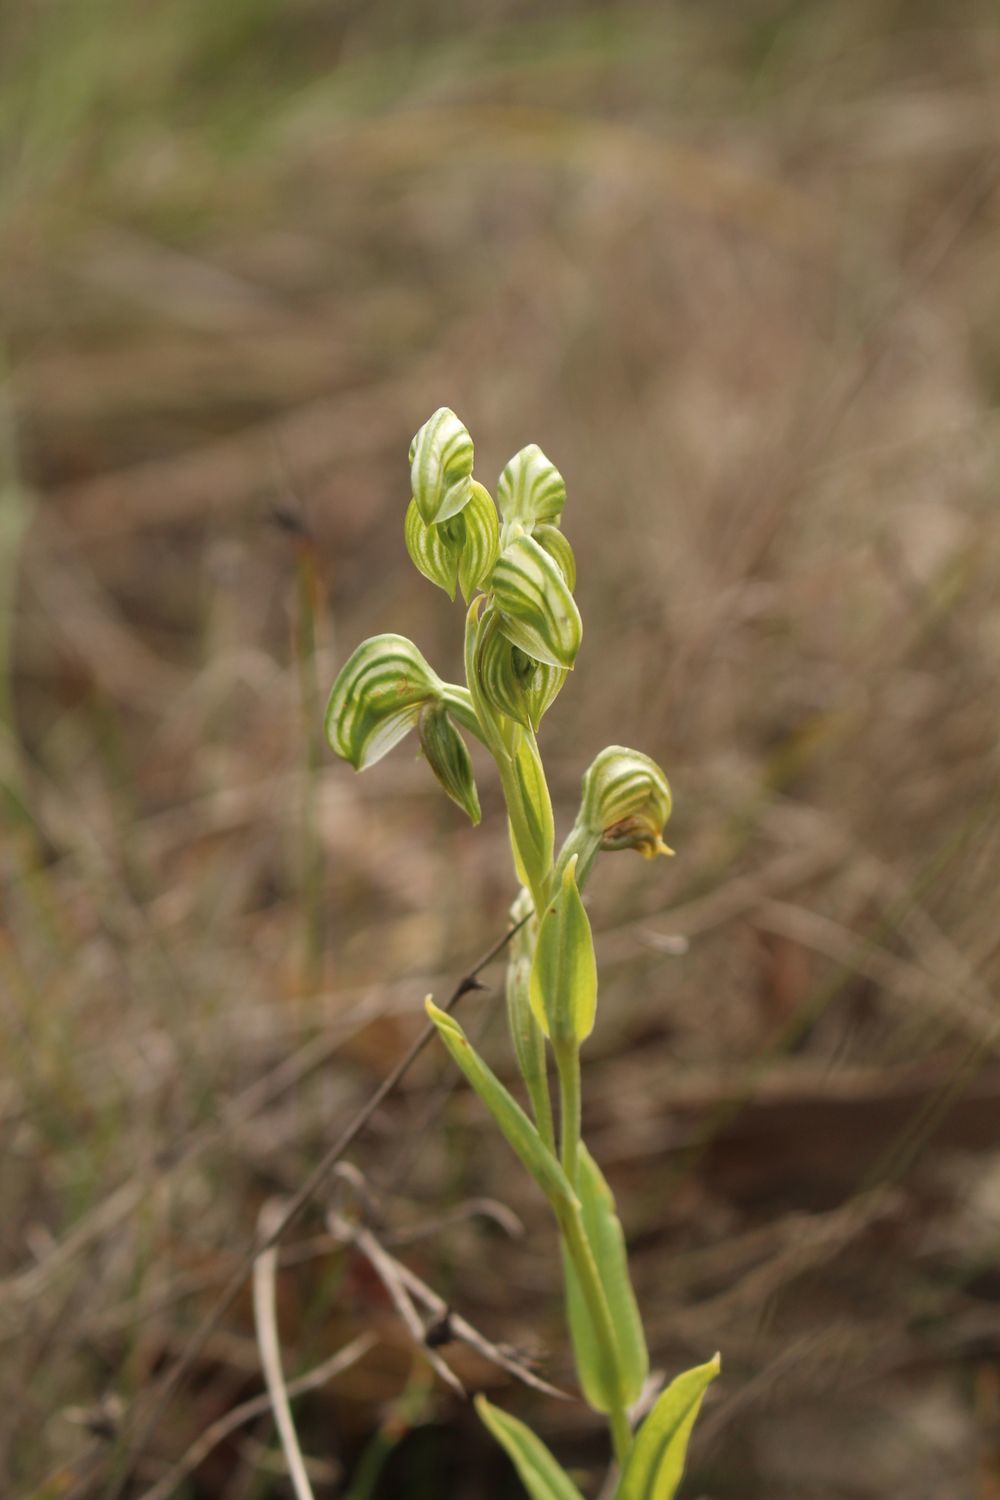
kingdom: Plantae
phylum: Tracheophyta
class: Liliopsida
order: Asparagales
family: Orchidaceae
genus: Pterostylis
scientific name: Pterostylis vittata
